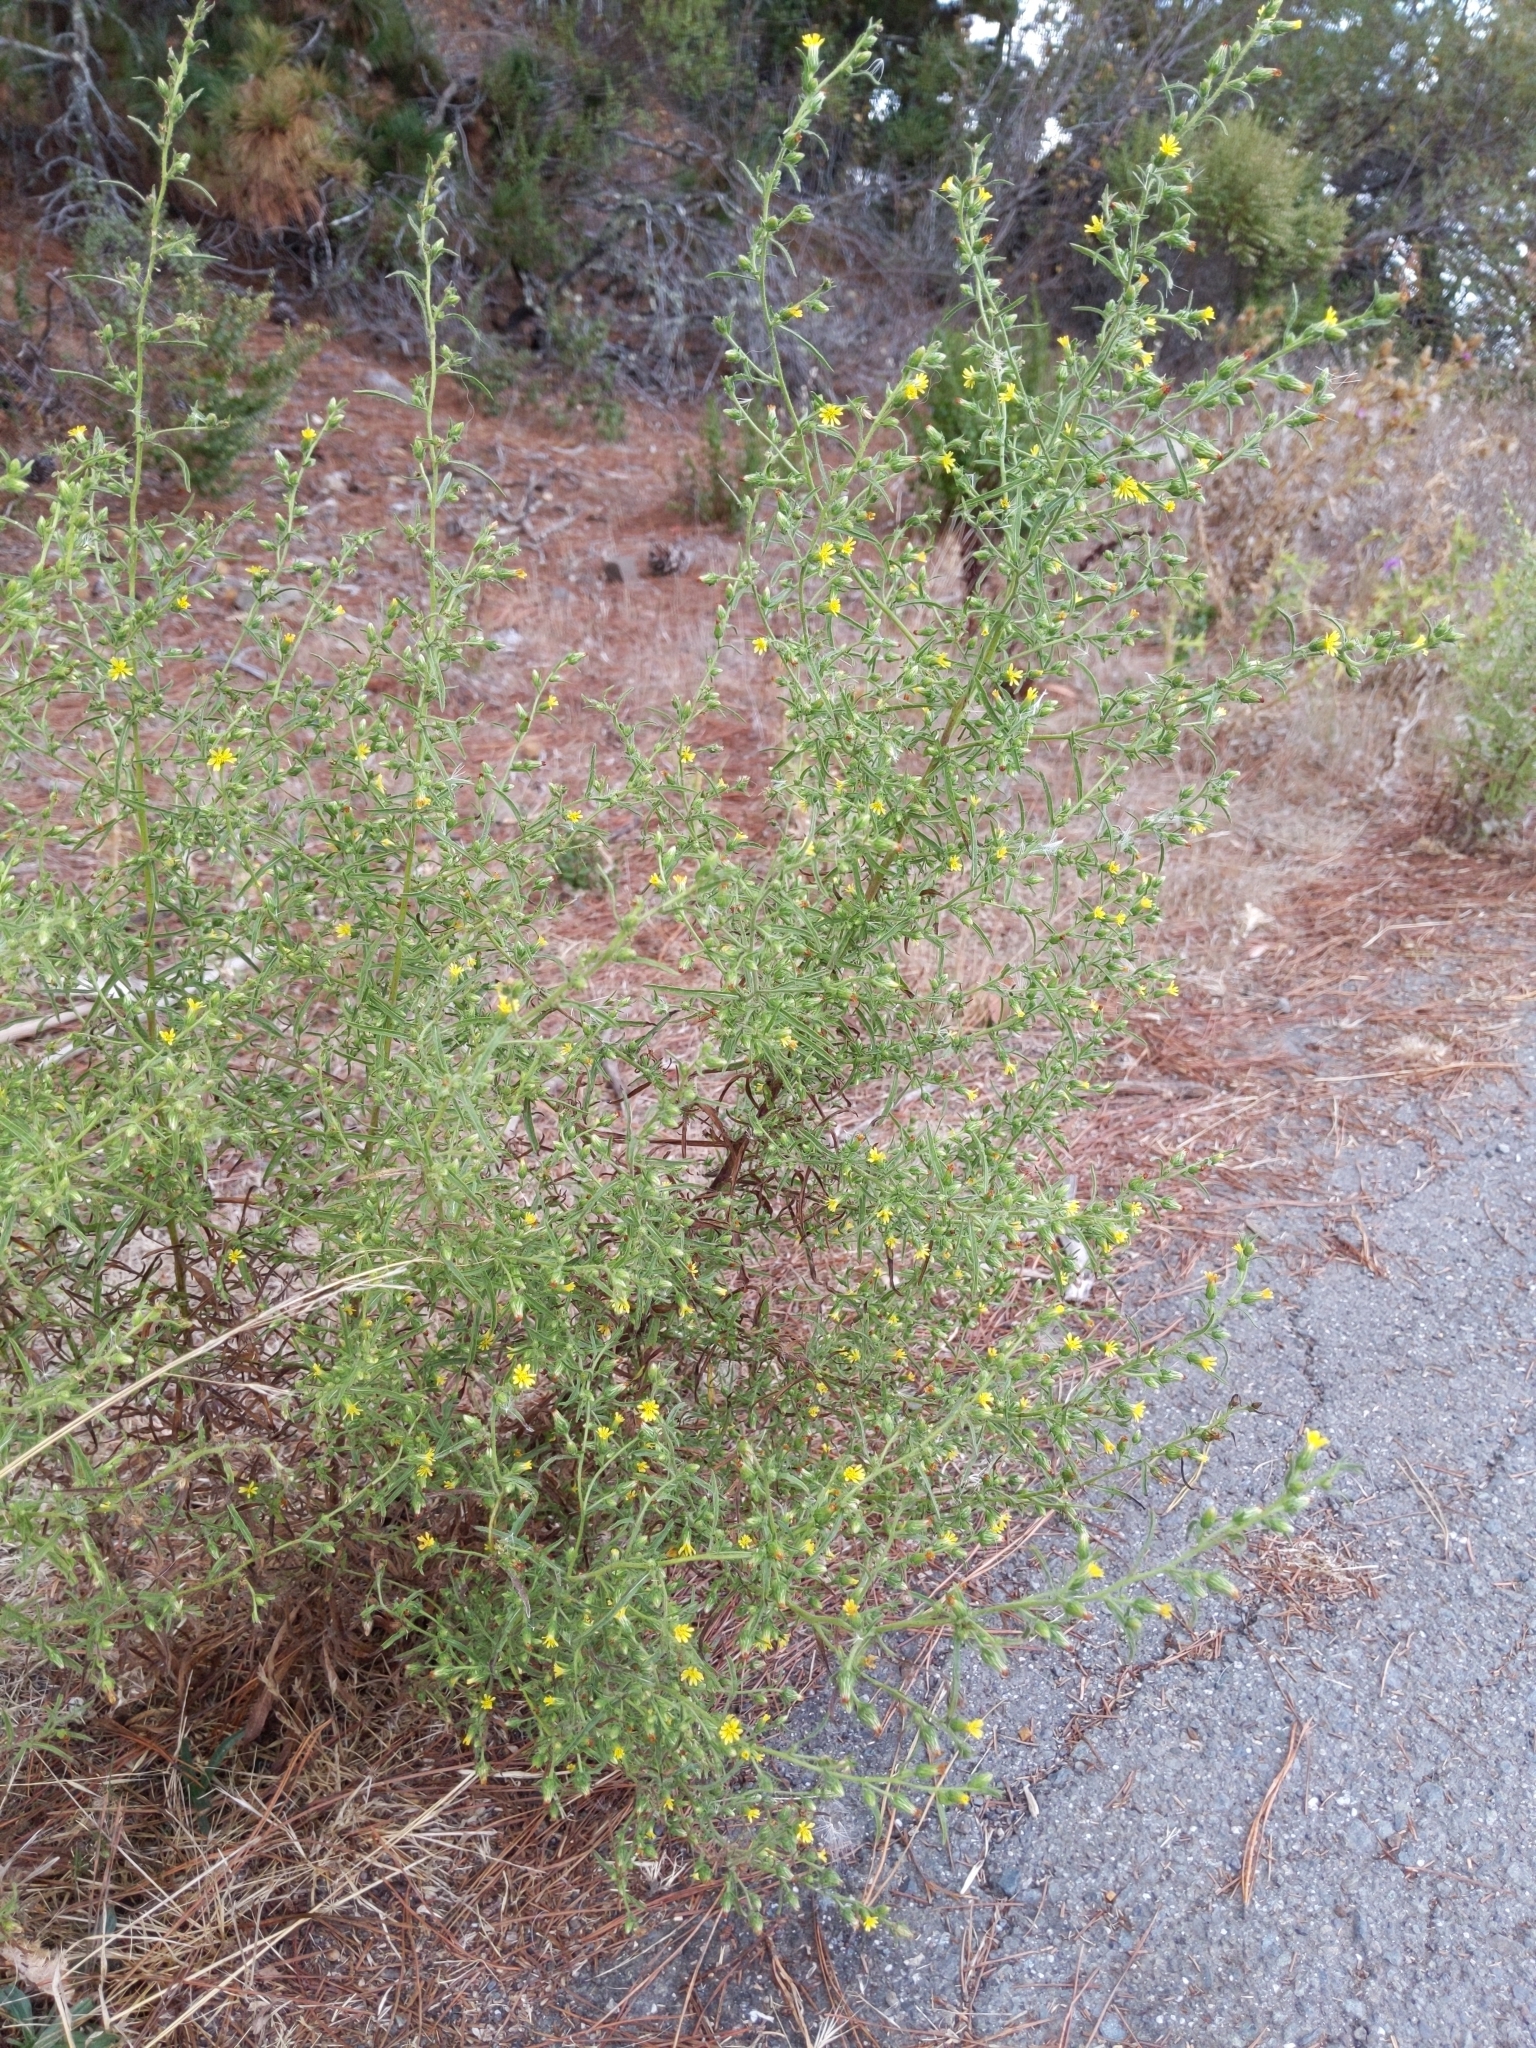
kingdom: Plantae
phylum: Tracheophyta
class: Magnoliopsida
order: Asterales
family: Asteraceae
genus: Dittrichia
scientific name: Dittrichia graveolens
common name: Stinking fleabane
